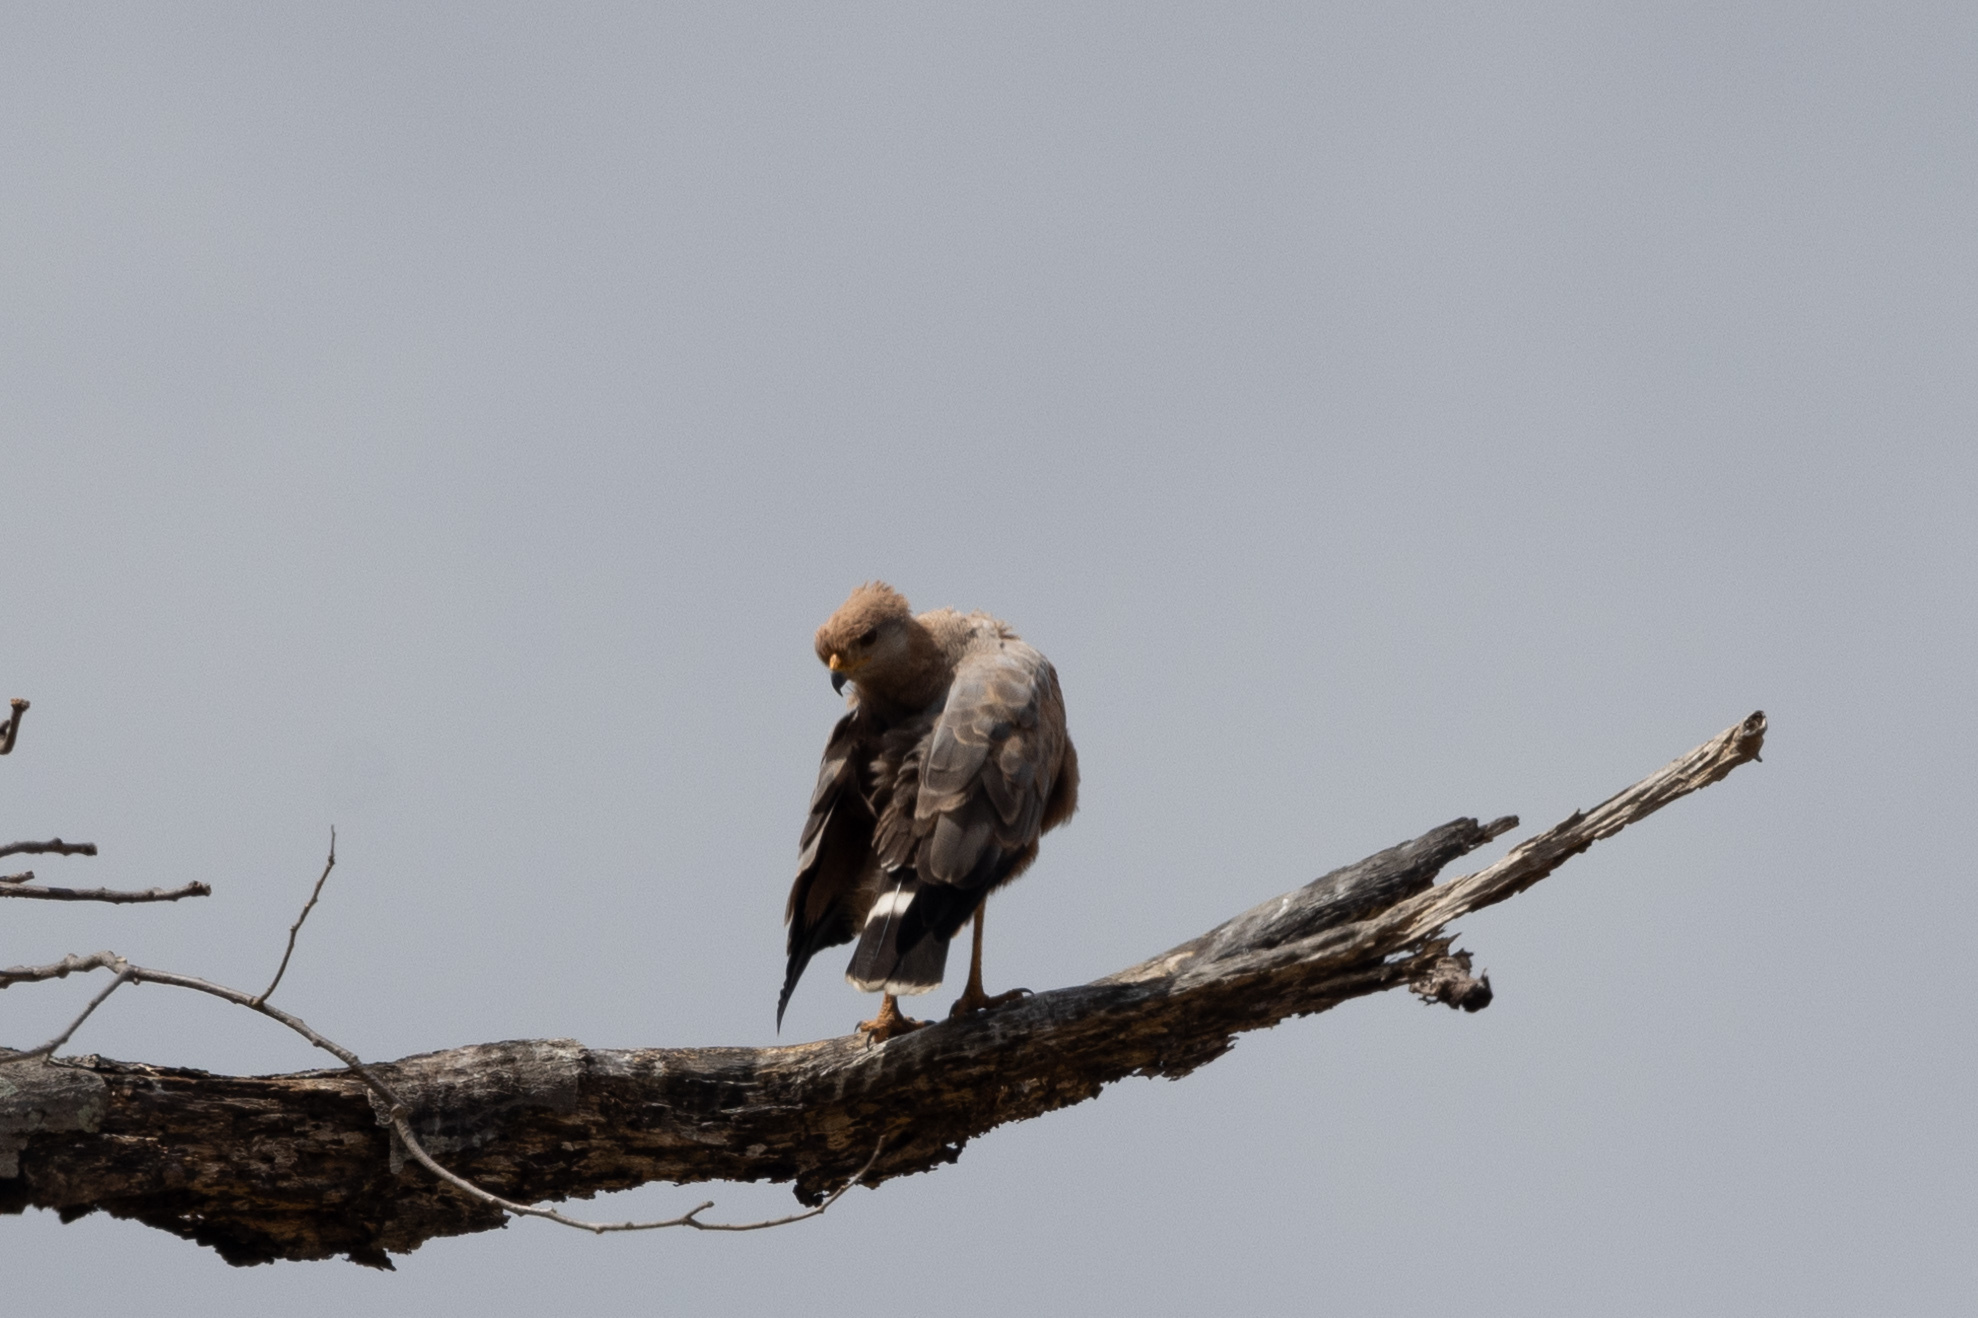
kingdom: Animalia
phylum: Chordata
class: Aves
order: Accipitriformes
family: Accipitridae
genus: Buteogallus
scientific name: Buteogallus meridionalis
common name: Savanna hawk
